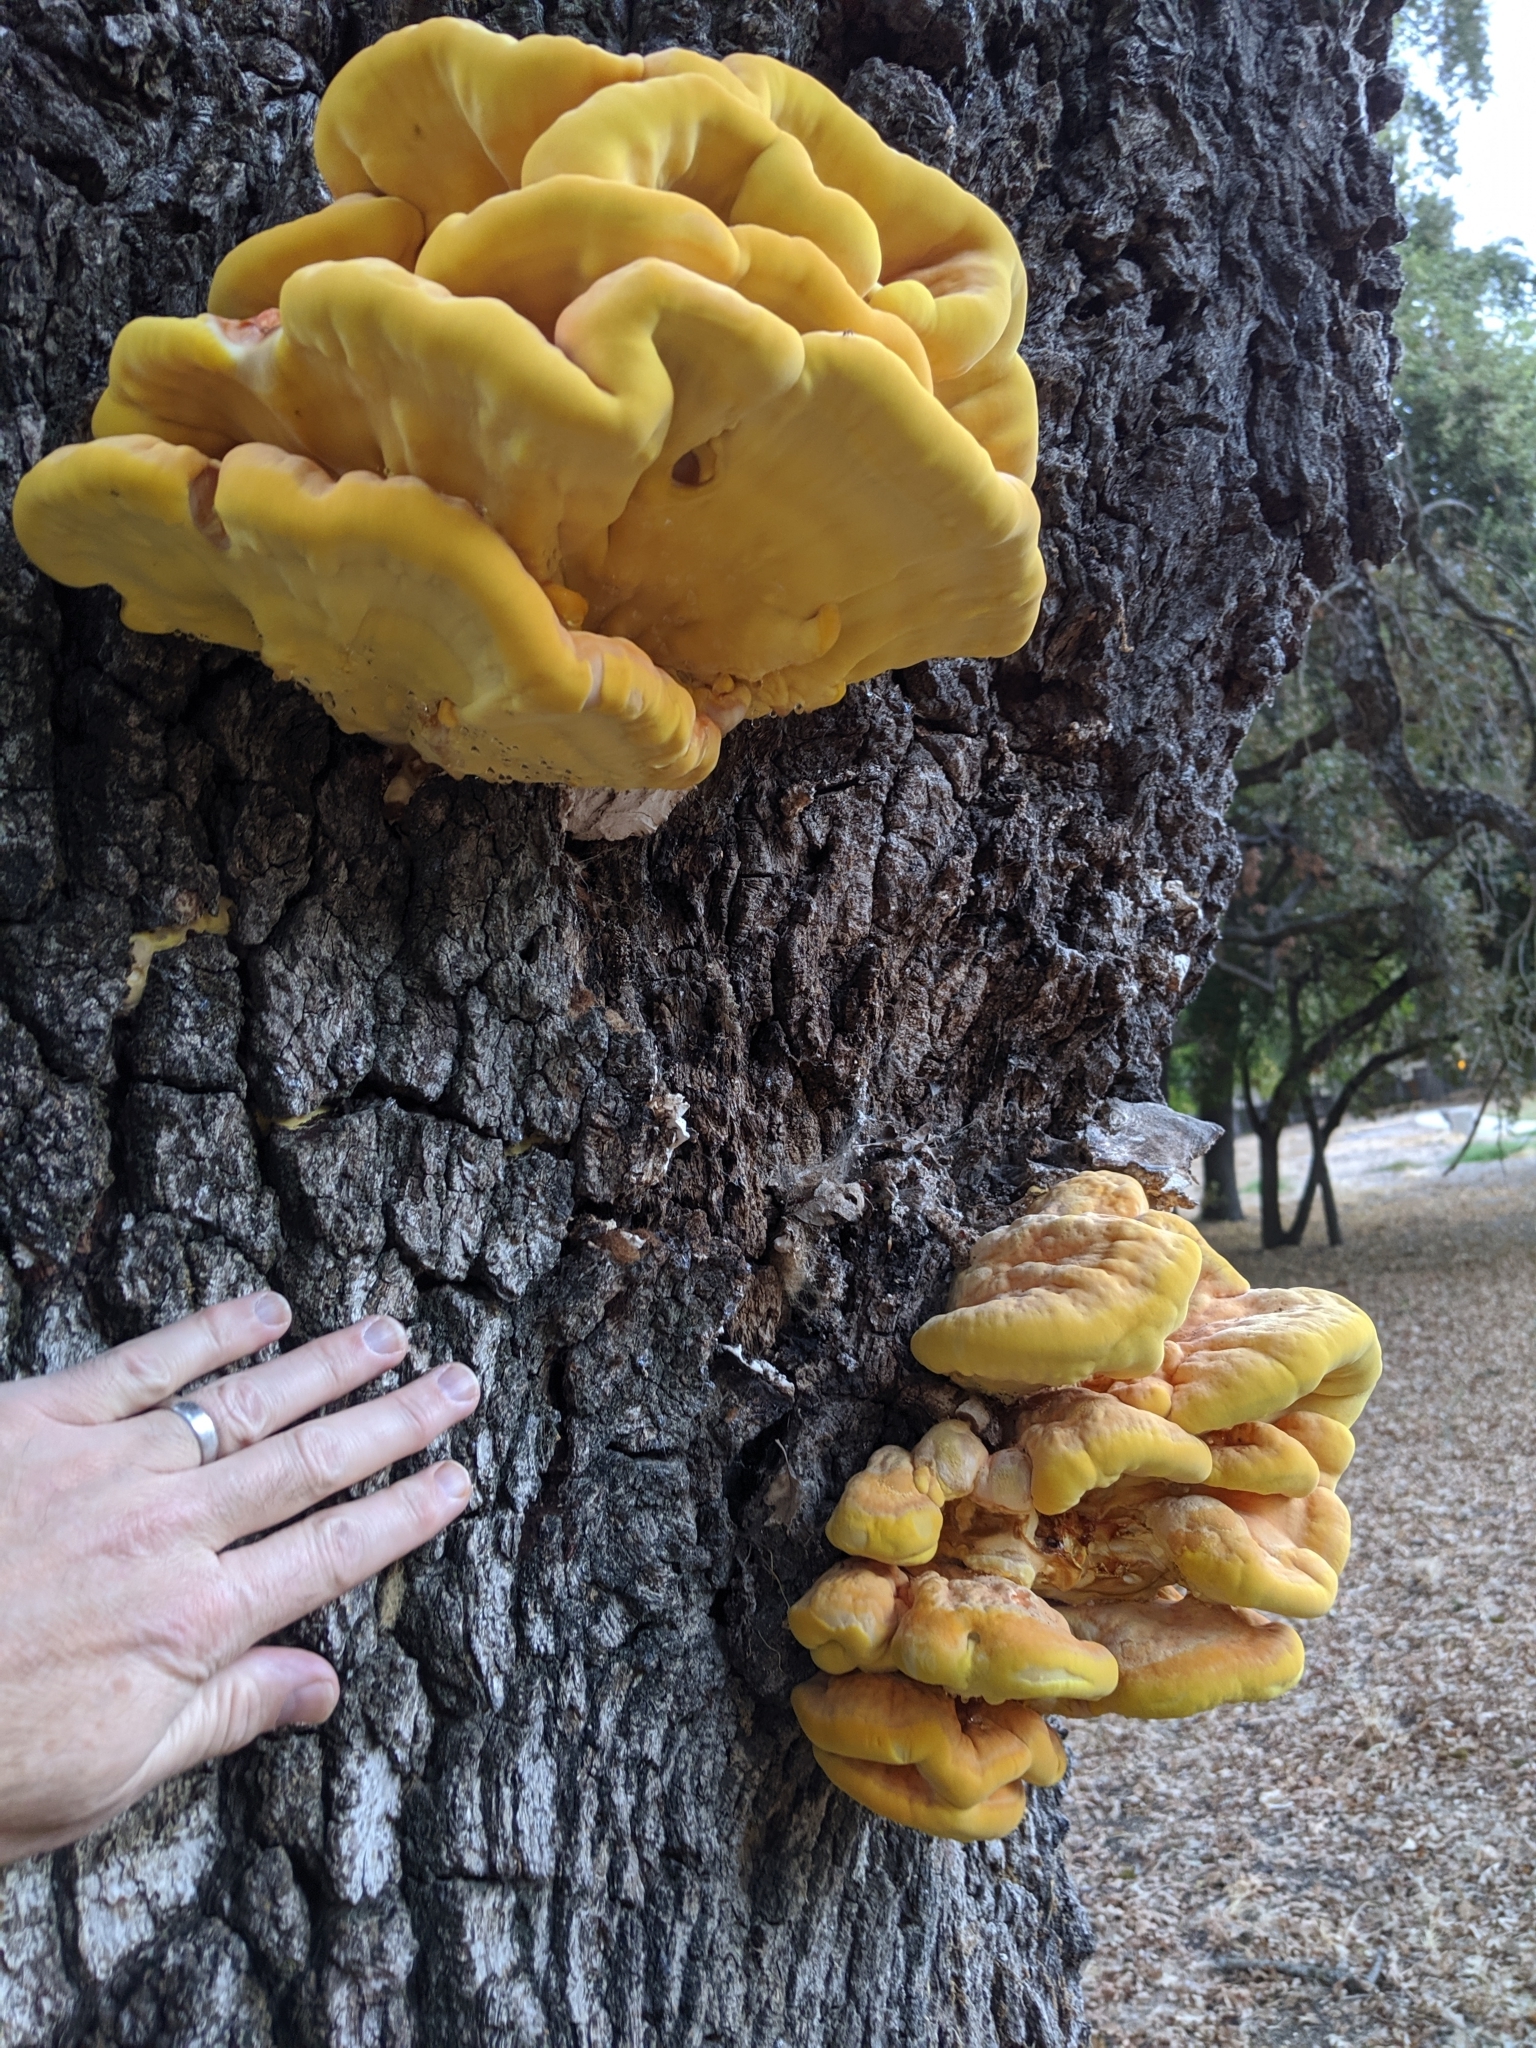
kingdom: Fungi
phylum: Basidiomycota
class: Agaricomycetes
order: Polyporales
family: Laetiporaceae
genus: Laetiporus
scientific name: Laetiporus gilbertsonii
